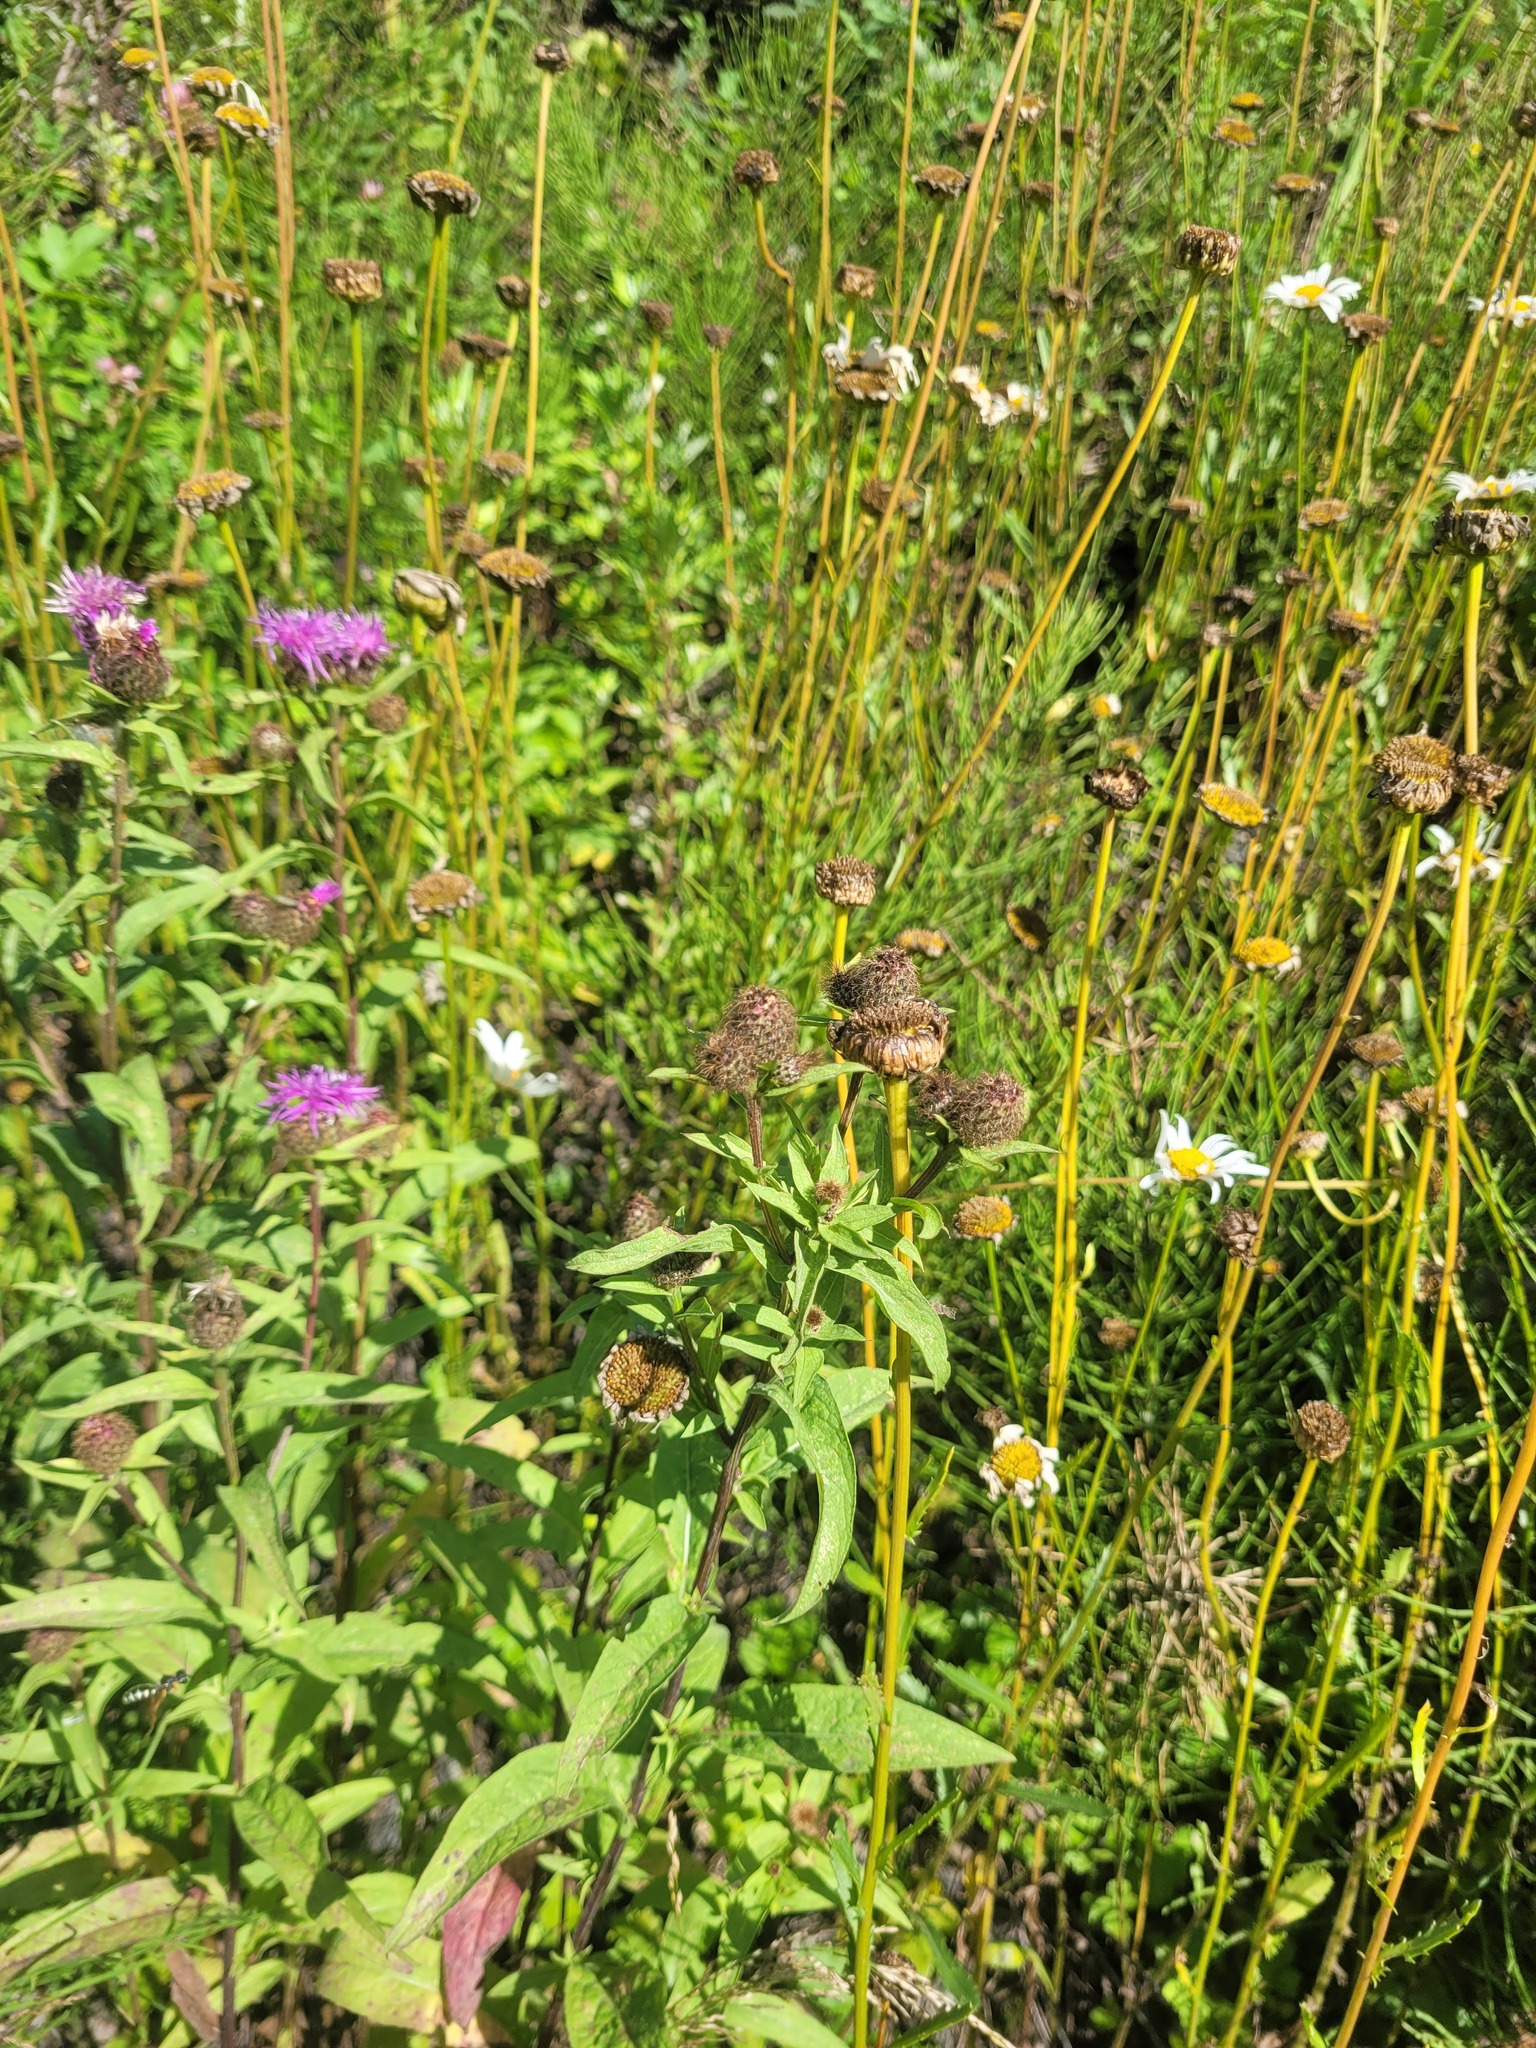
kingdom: Plantae
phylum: Tracheophyta
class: Magnoliopsida
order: Asterales
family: Asteraceae
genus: Centaurea
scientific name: Centaurea pseudophrygia
